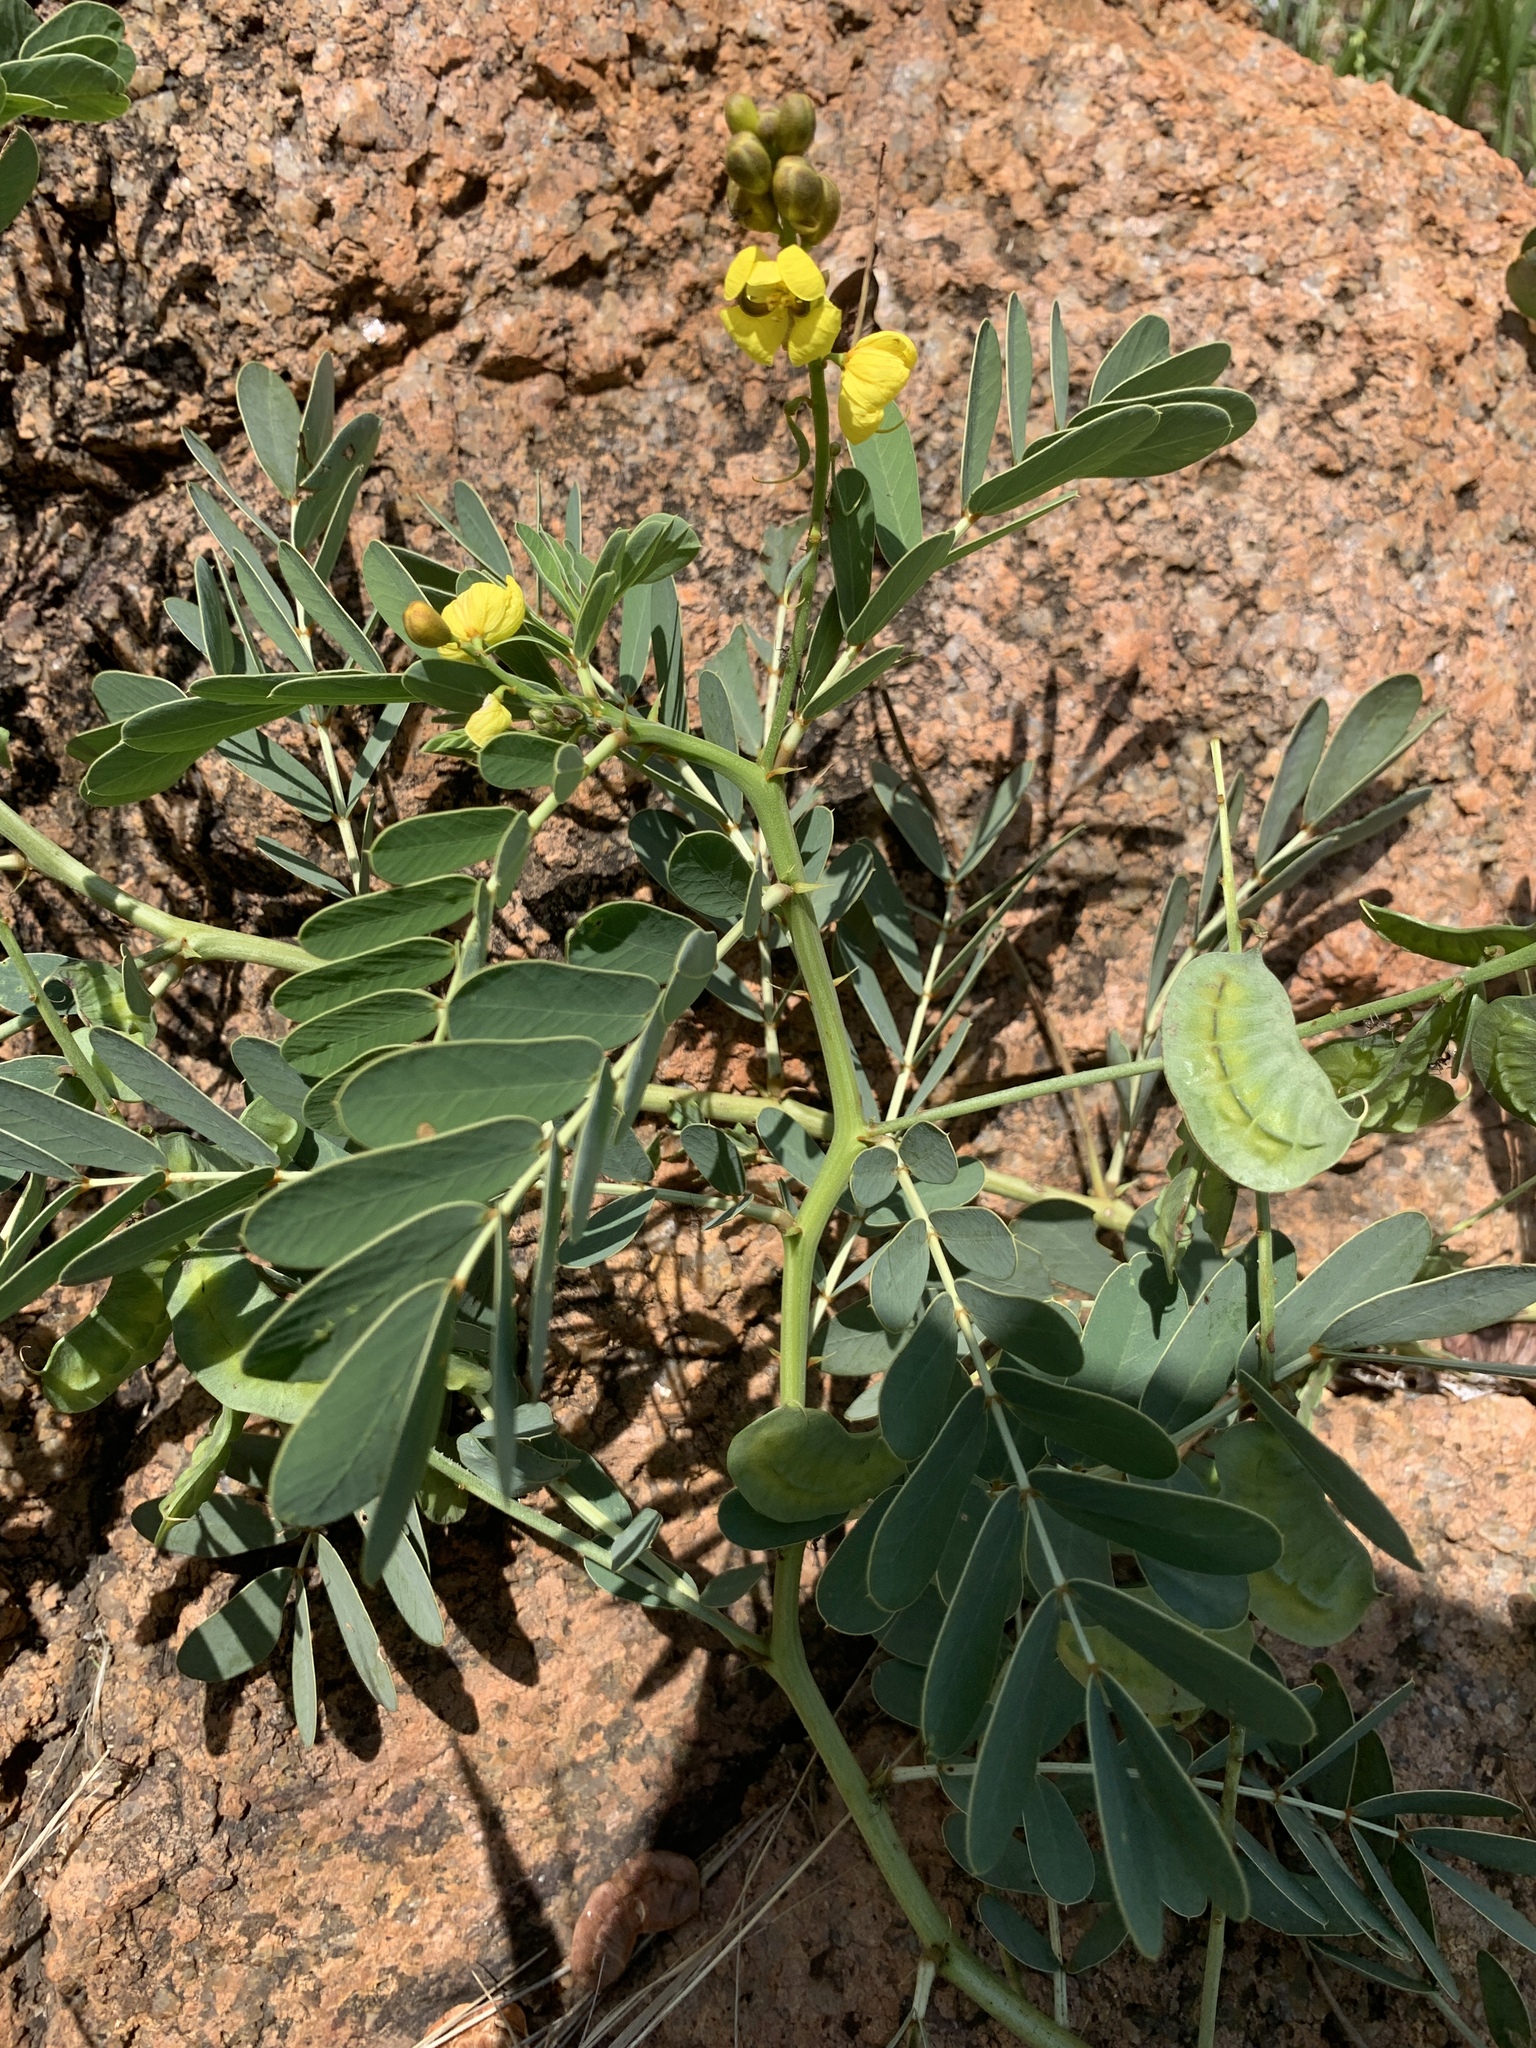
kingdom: Plantae
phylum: Tracheophyta
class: Magnoliopsida
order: Fabales
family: Fabaceae
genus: Senna
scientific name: Senna italica
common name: Port royal senna
